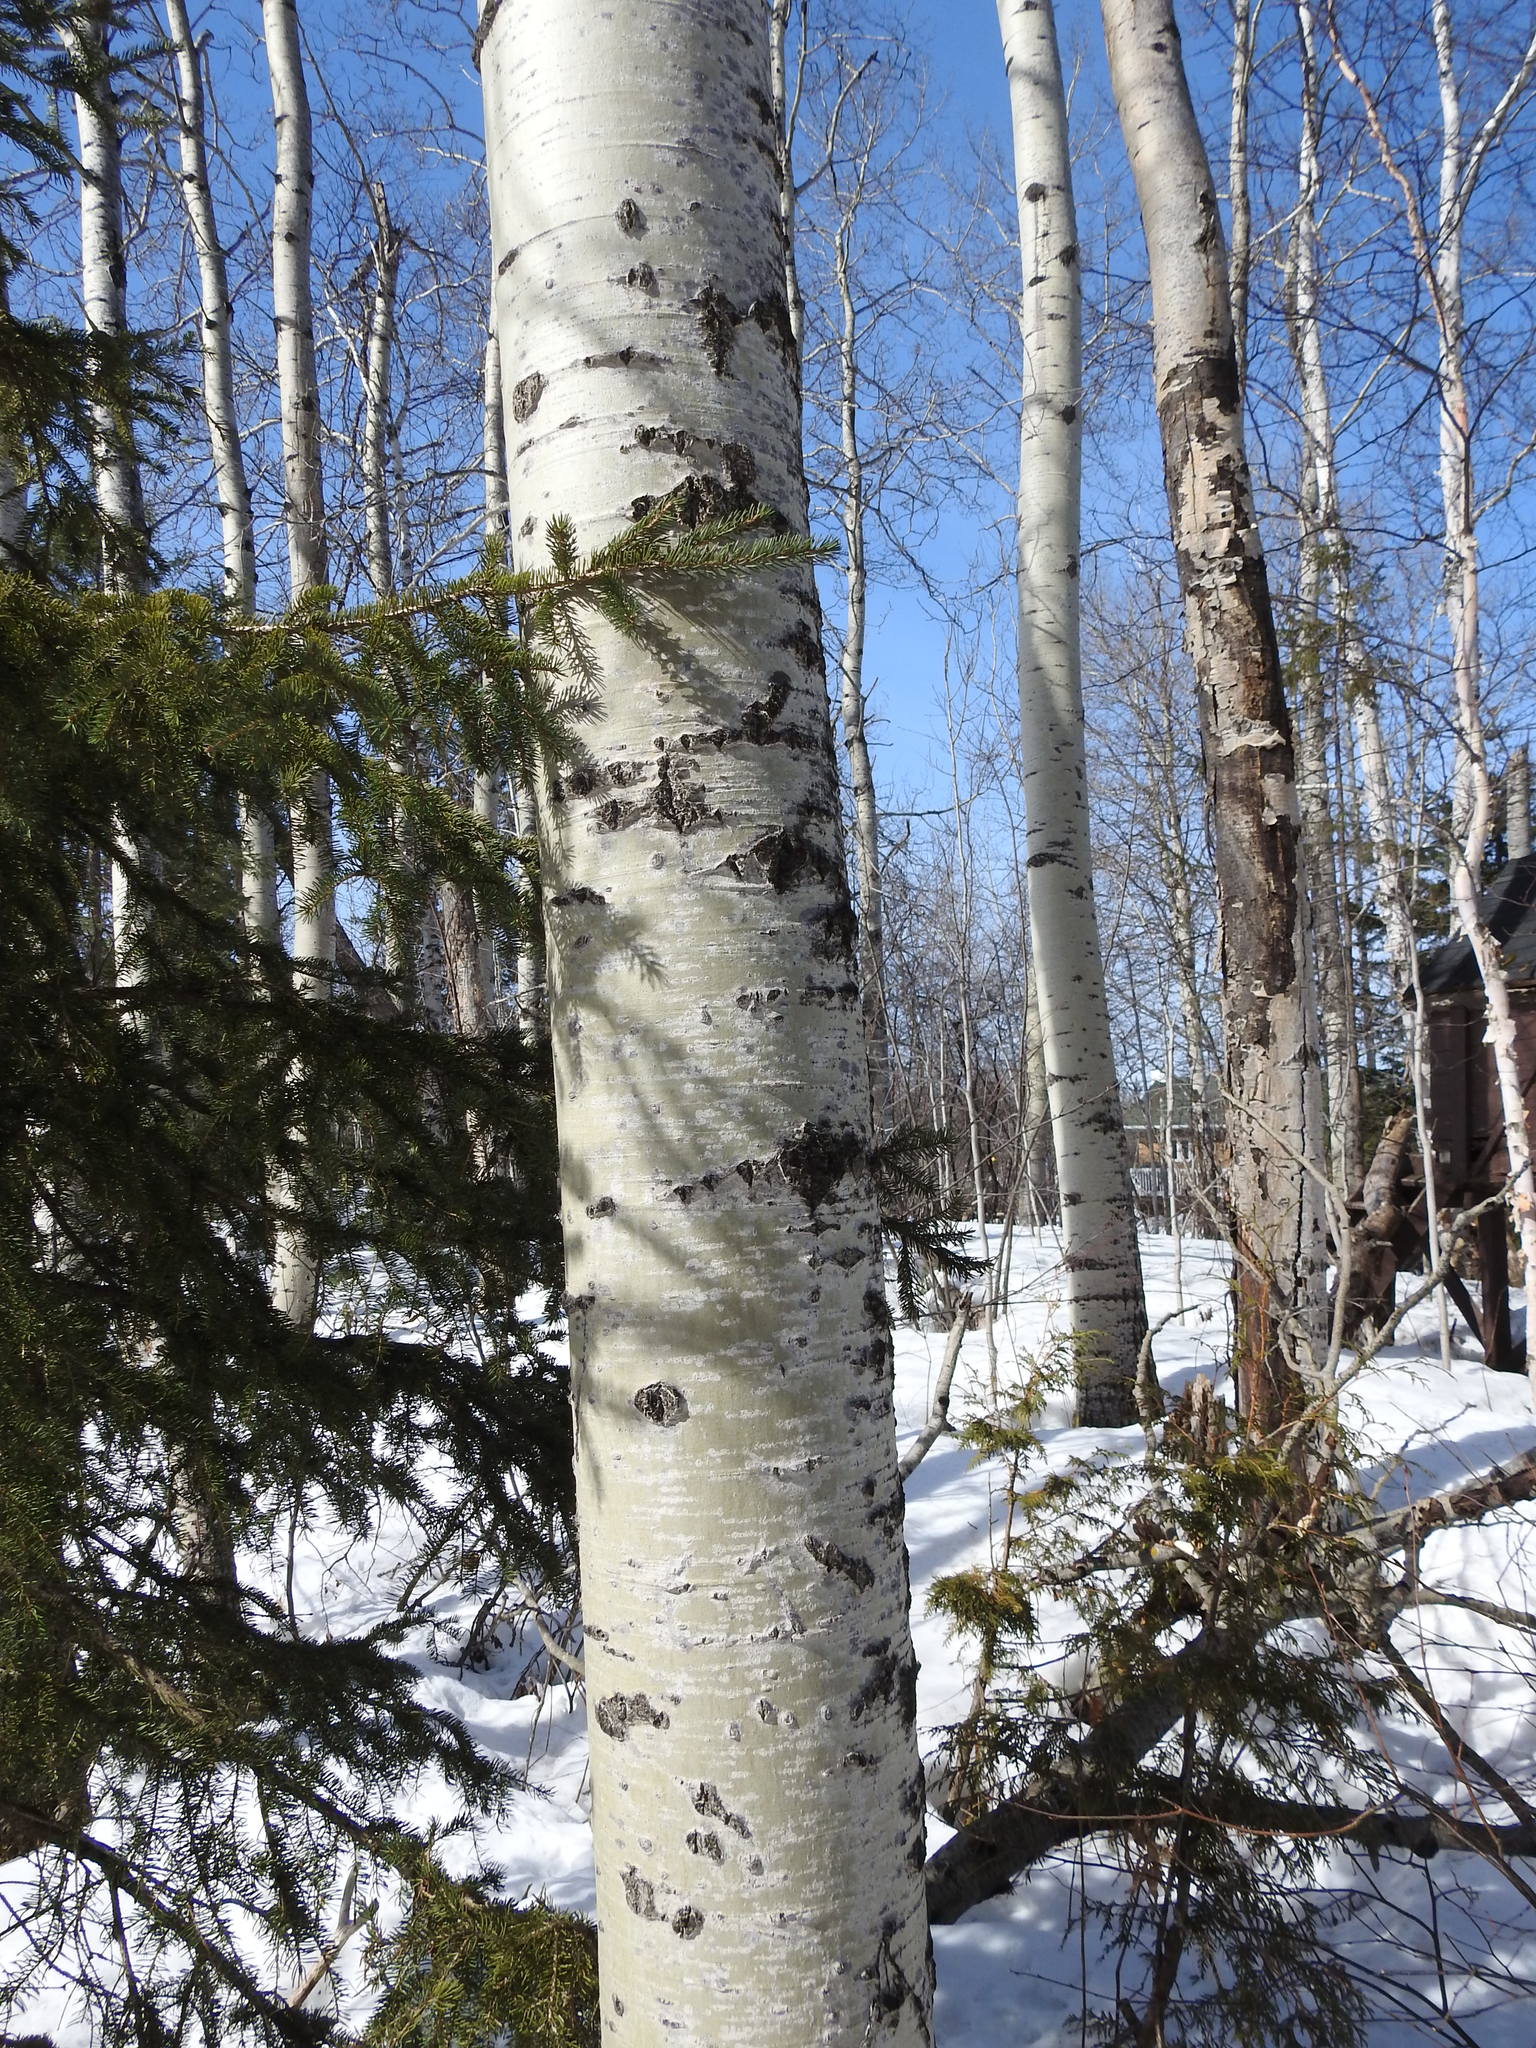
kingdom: Plantae
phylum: Tracheophyta
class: Magnoliopsida
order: Malpighiales
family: Salicaceae
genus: Populus
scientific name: Populus tremuloides
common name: Quaking aspen
